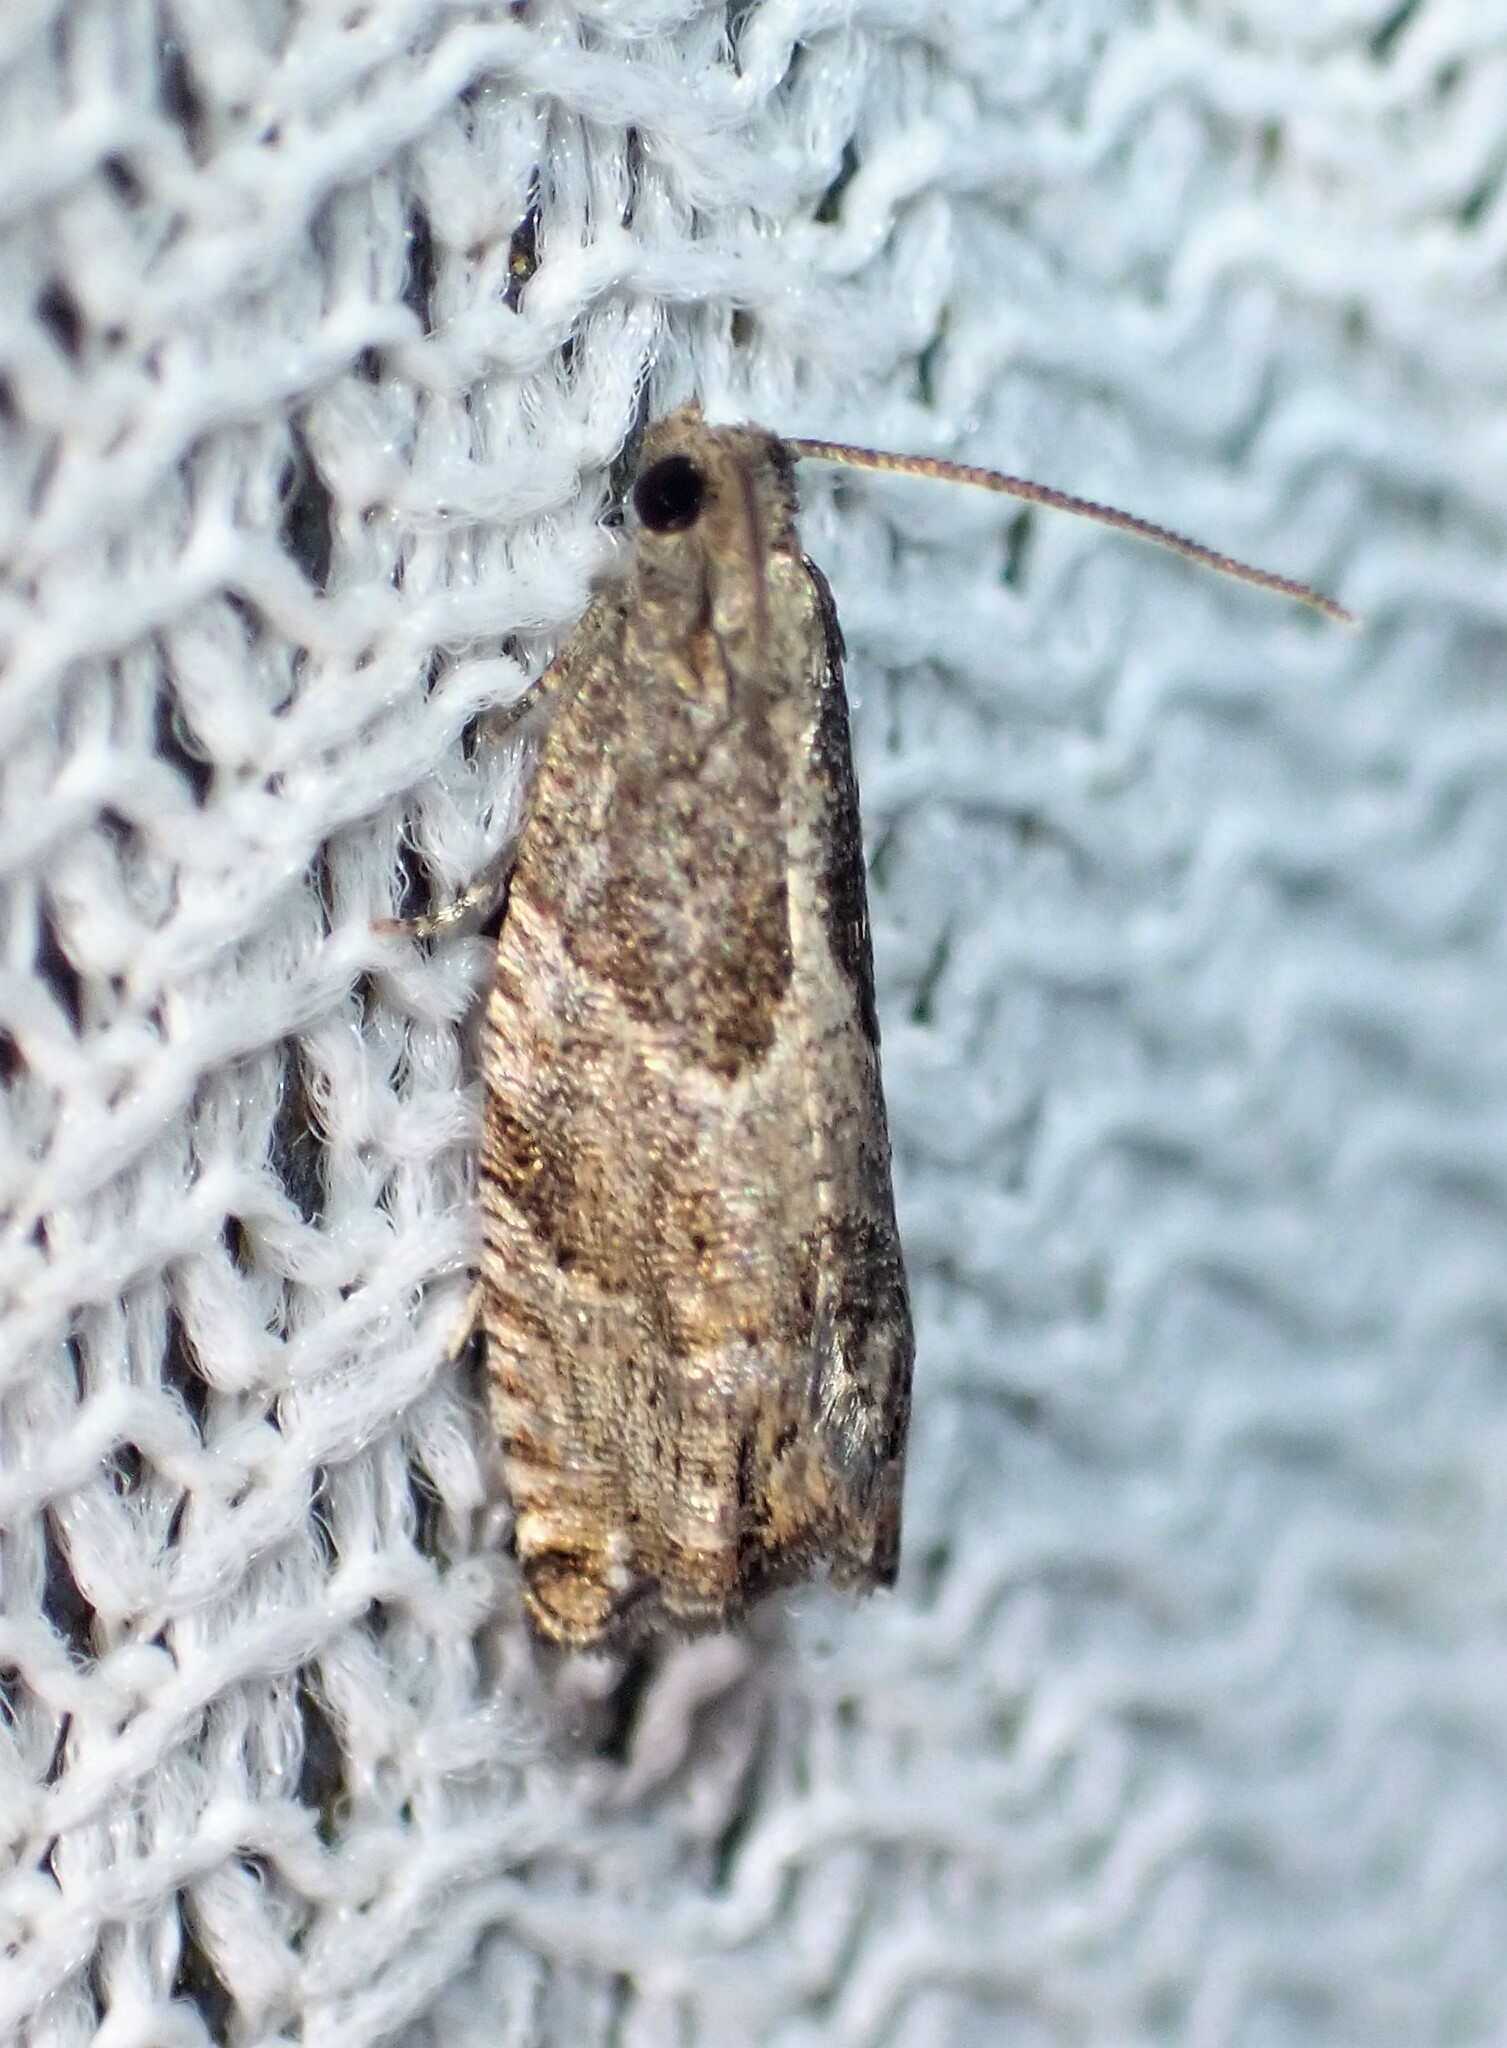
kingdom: Animalia
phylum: Arthropoda
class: Insecta
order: Lepidoptera
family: Tortricidae
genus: Gypsonoma
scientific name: Gypsonoma salicicolana
